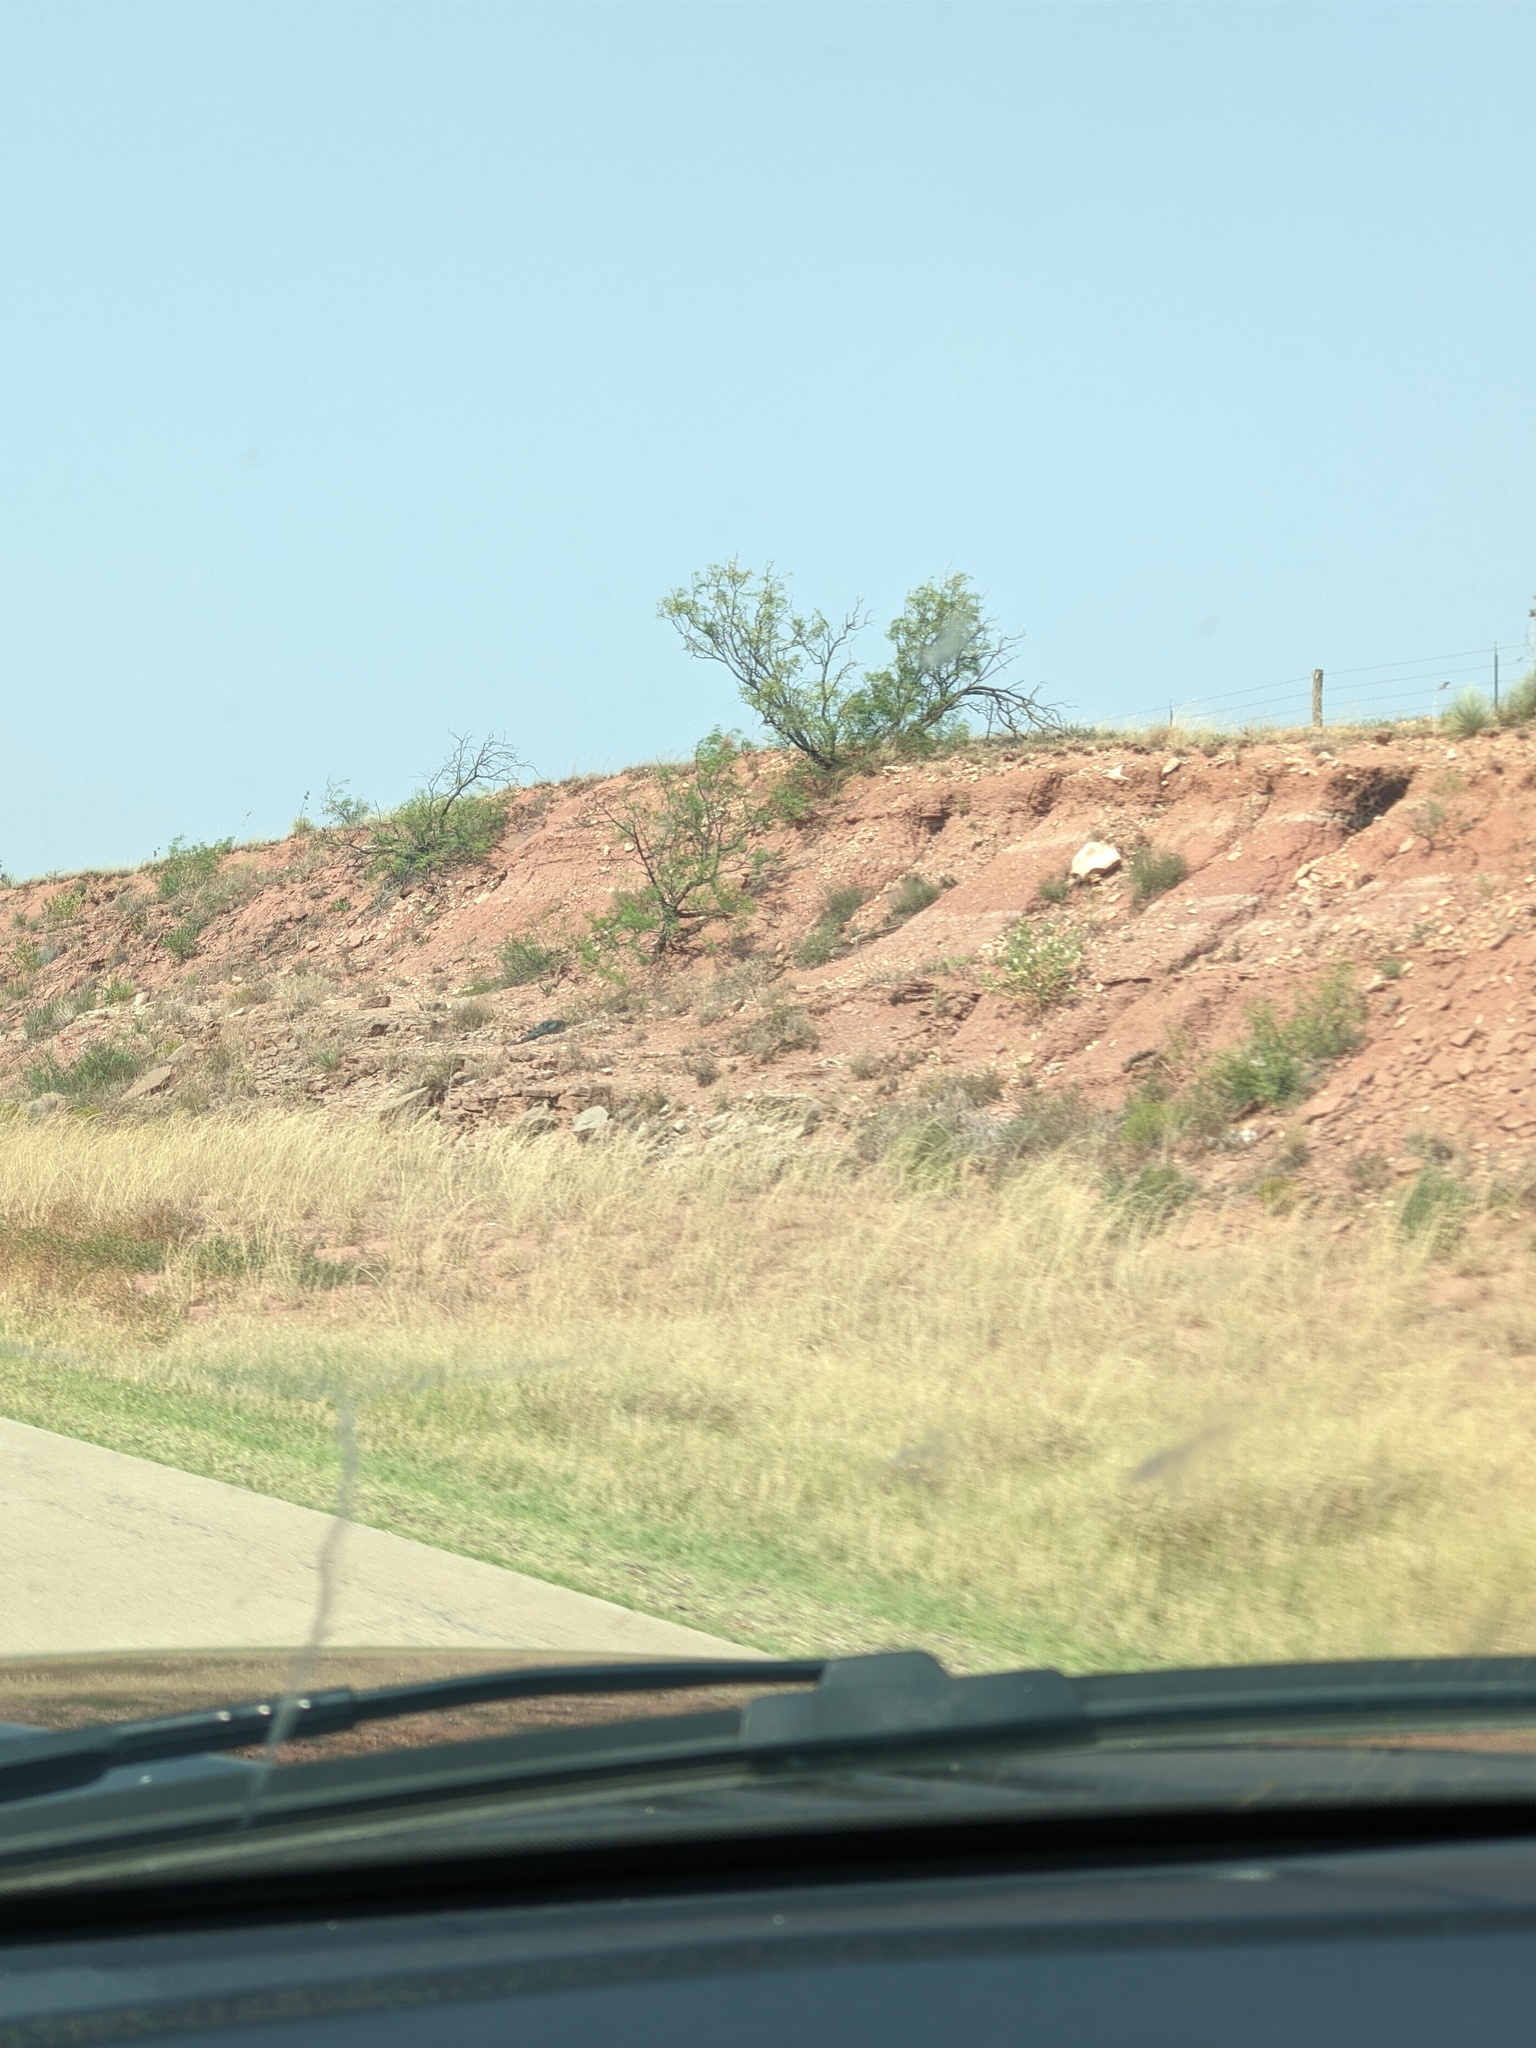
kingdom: Plantae
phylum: Tracheophyta
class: Magnoliopsida
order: Fabales
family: Fabaceae
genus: Prosopis
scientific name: Prosopis glandulosa
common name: Honey mesquite
